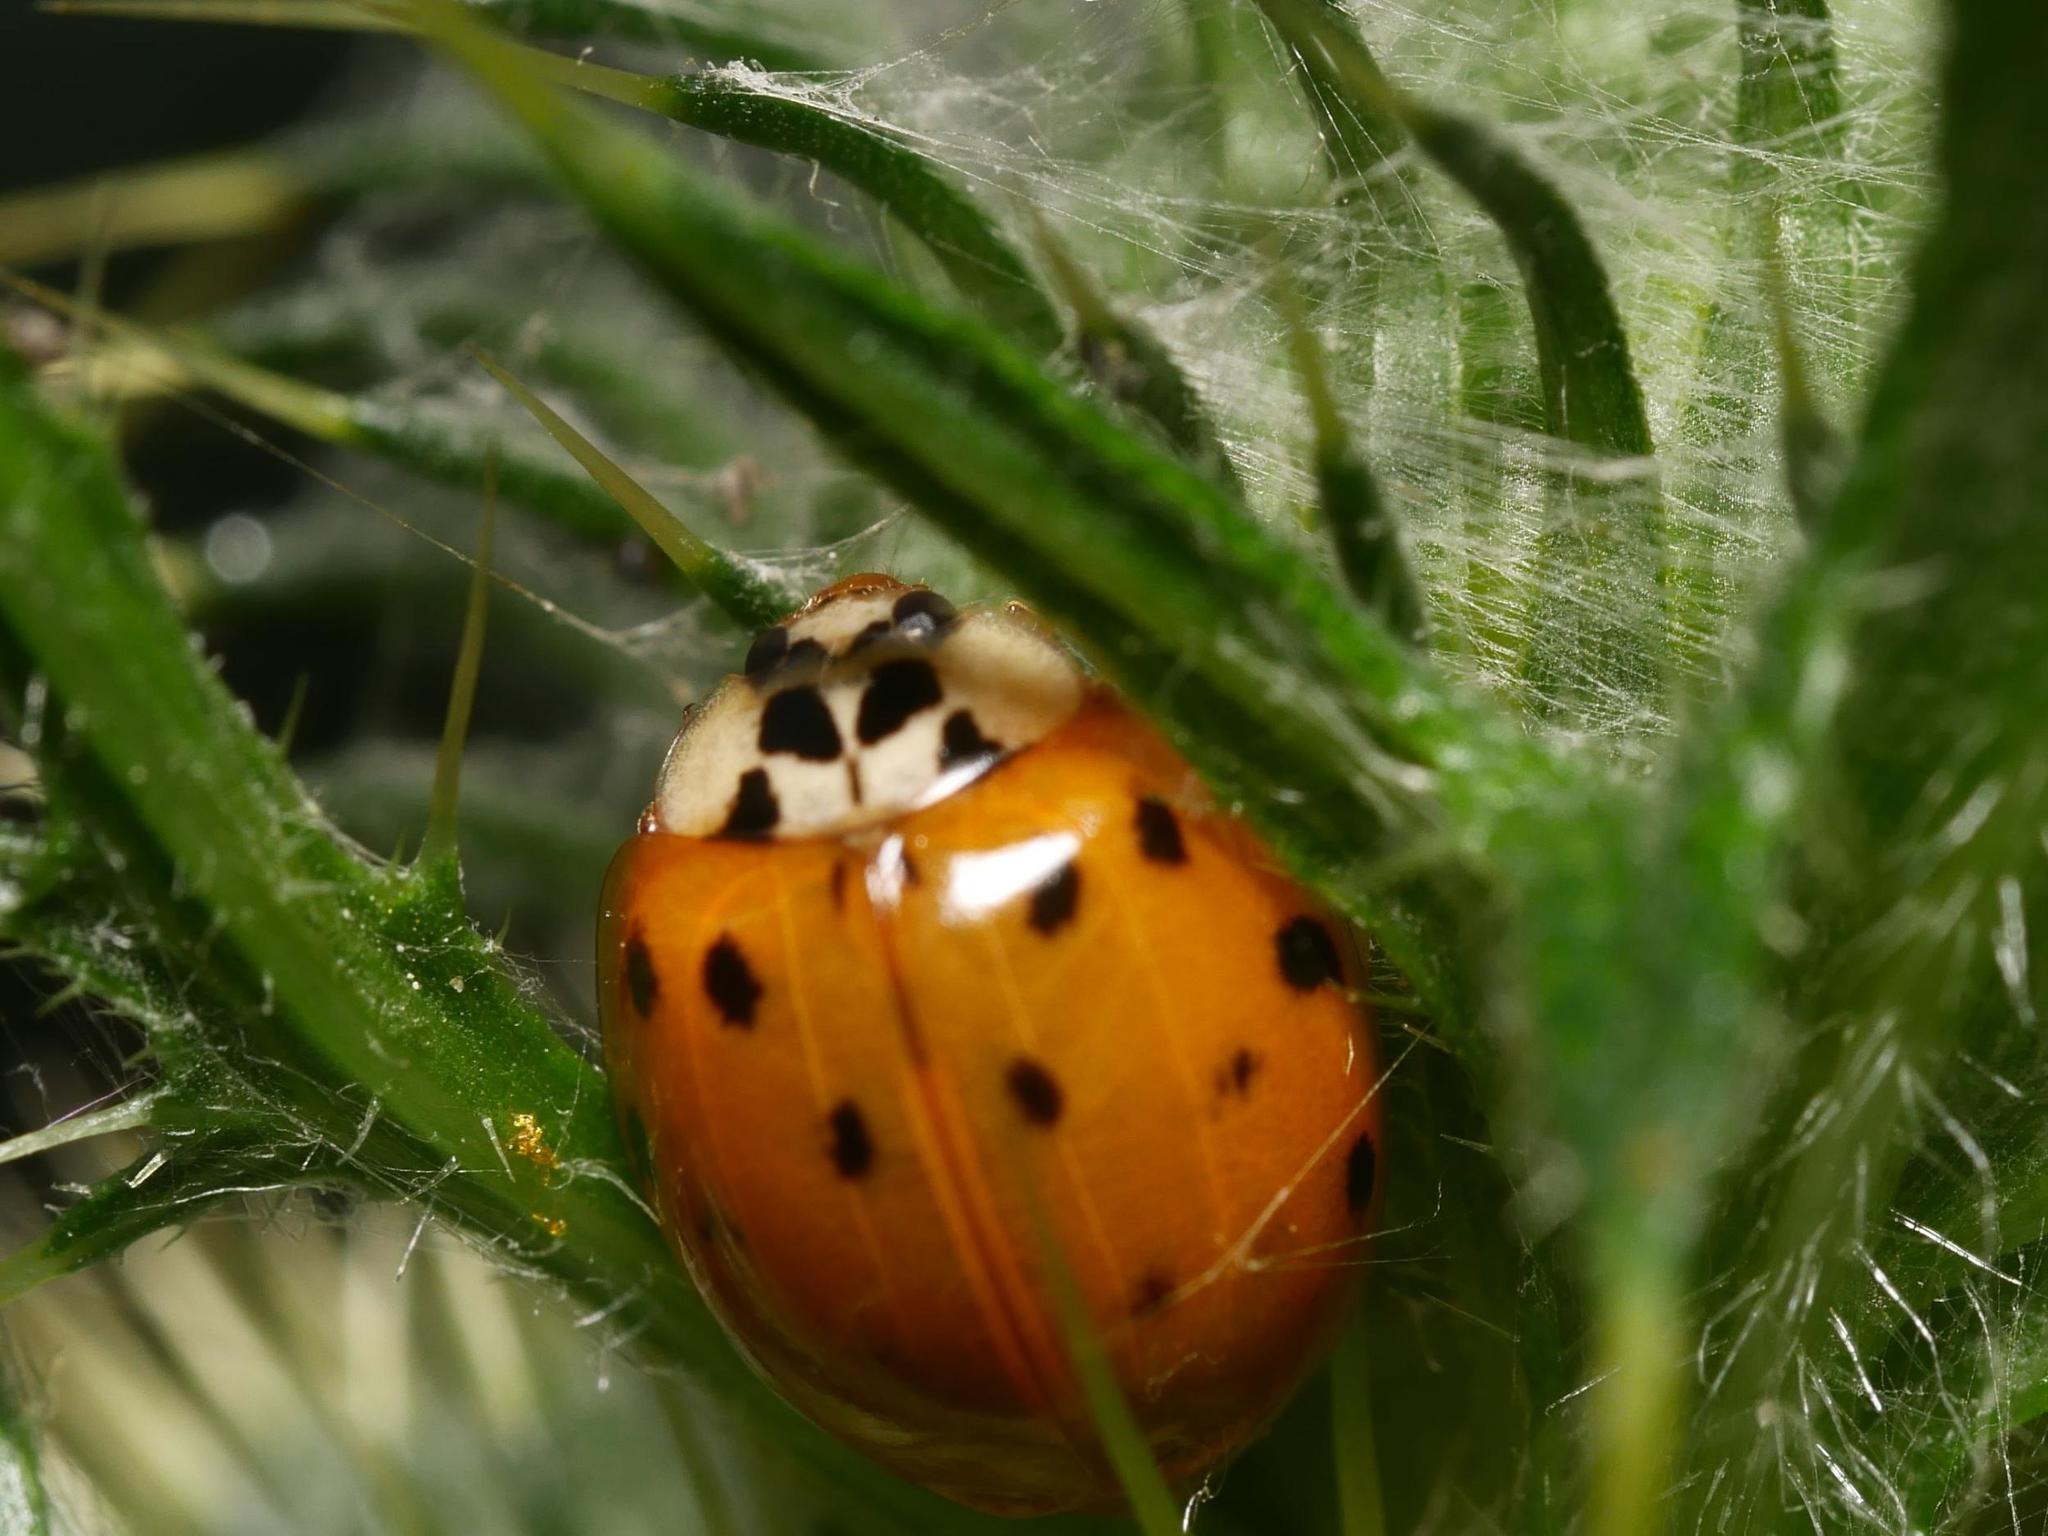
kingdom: Animalia
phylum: Arthropoda
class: Insecta
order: Coleoptera
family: Coccinellidae
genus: Harmonia
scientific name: Harmonia axyridis
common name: Harlequin ladybird
